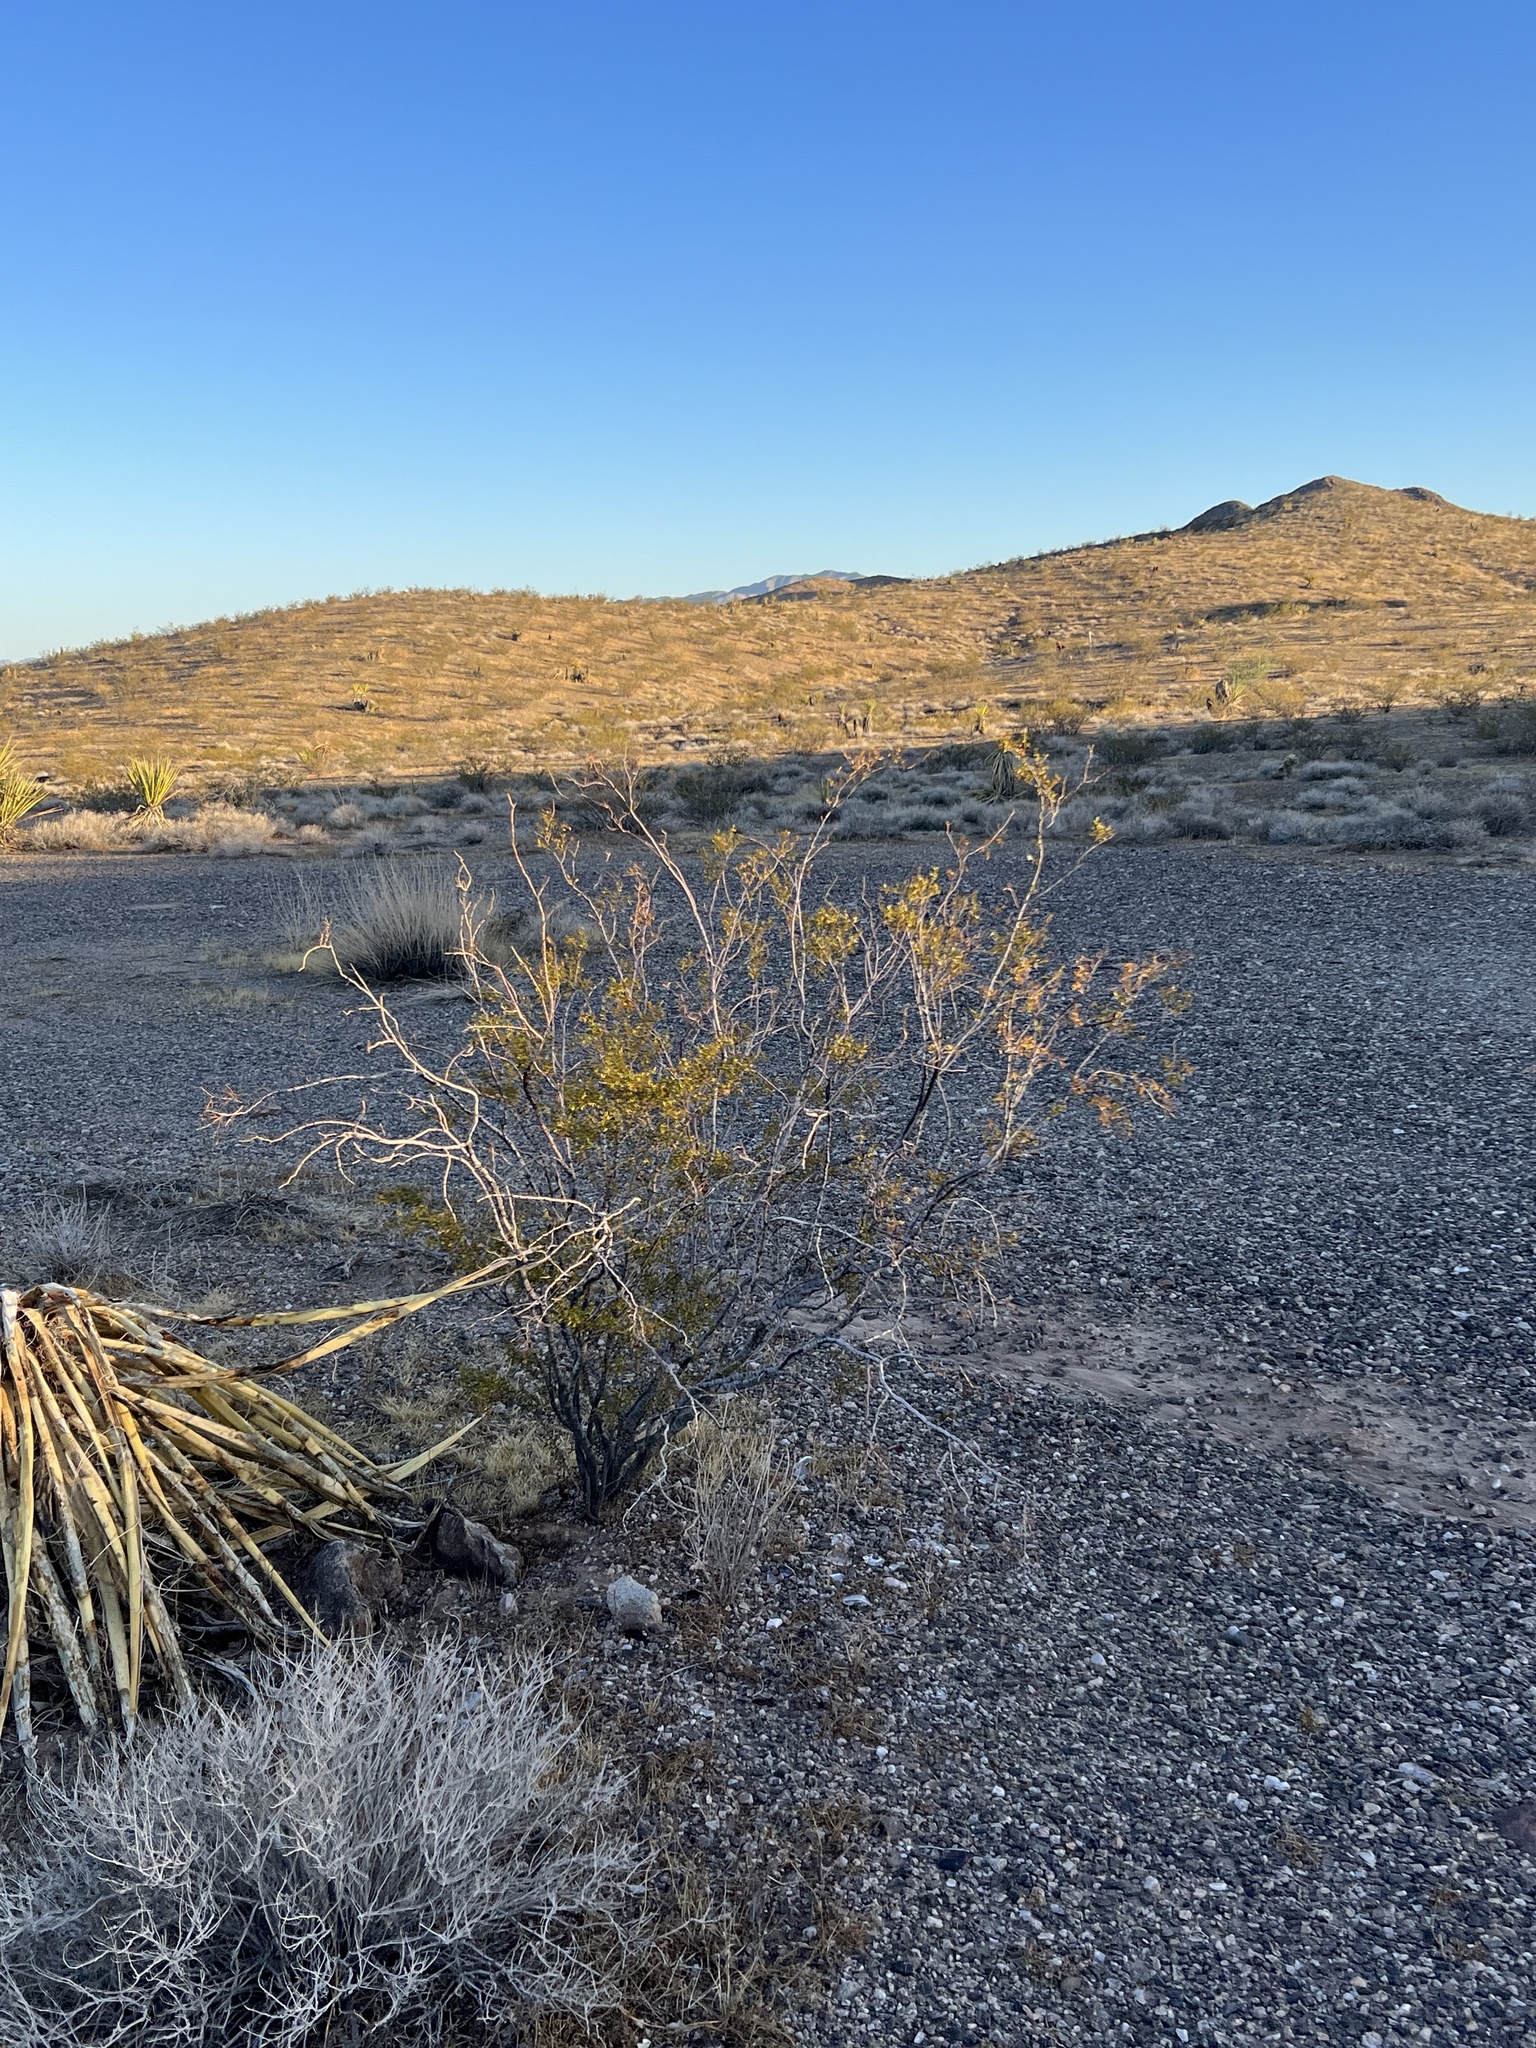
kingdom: Plantae
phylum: Tracheophyta
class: Magnoliopsida
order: Zygophyllales
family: Zygophyllaceae
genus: Larrea
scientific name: Larrea tridentata
